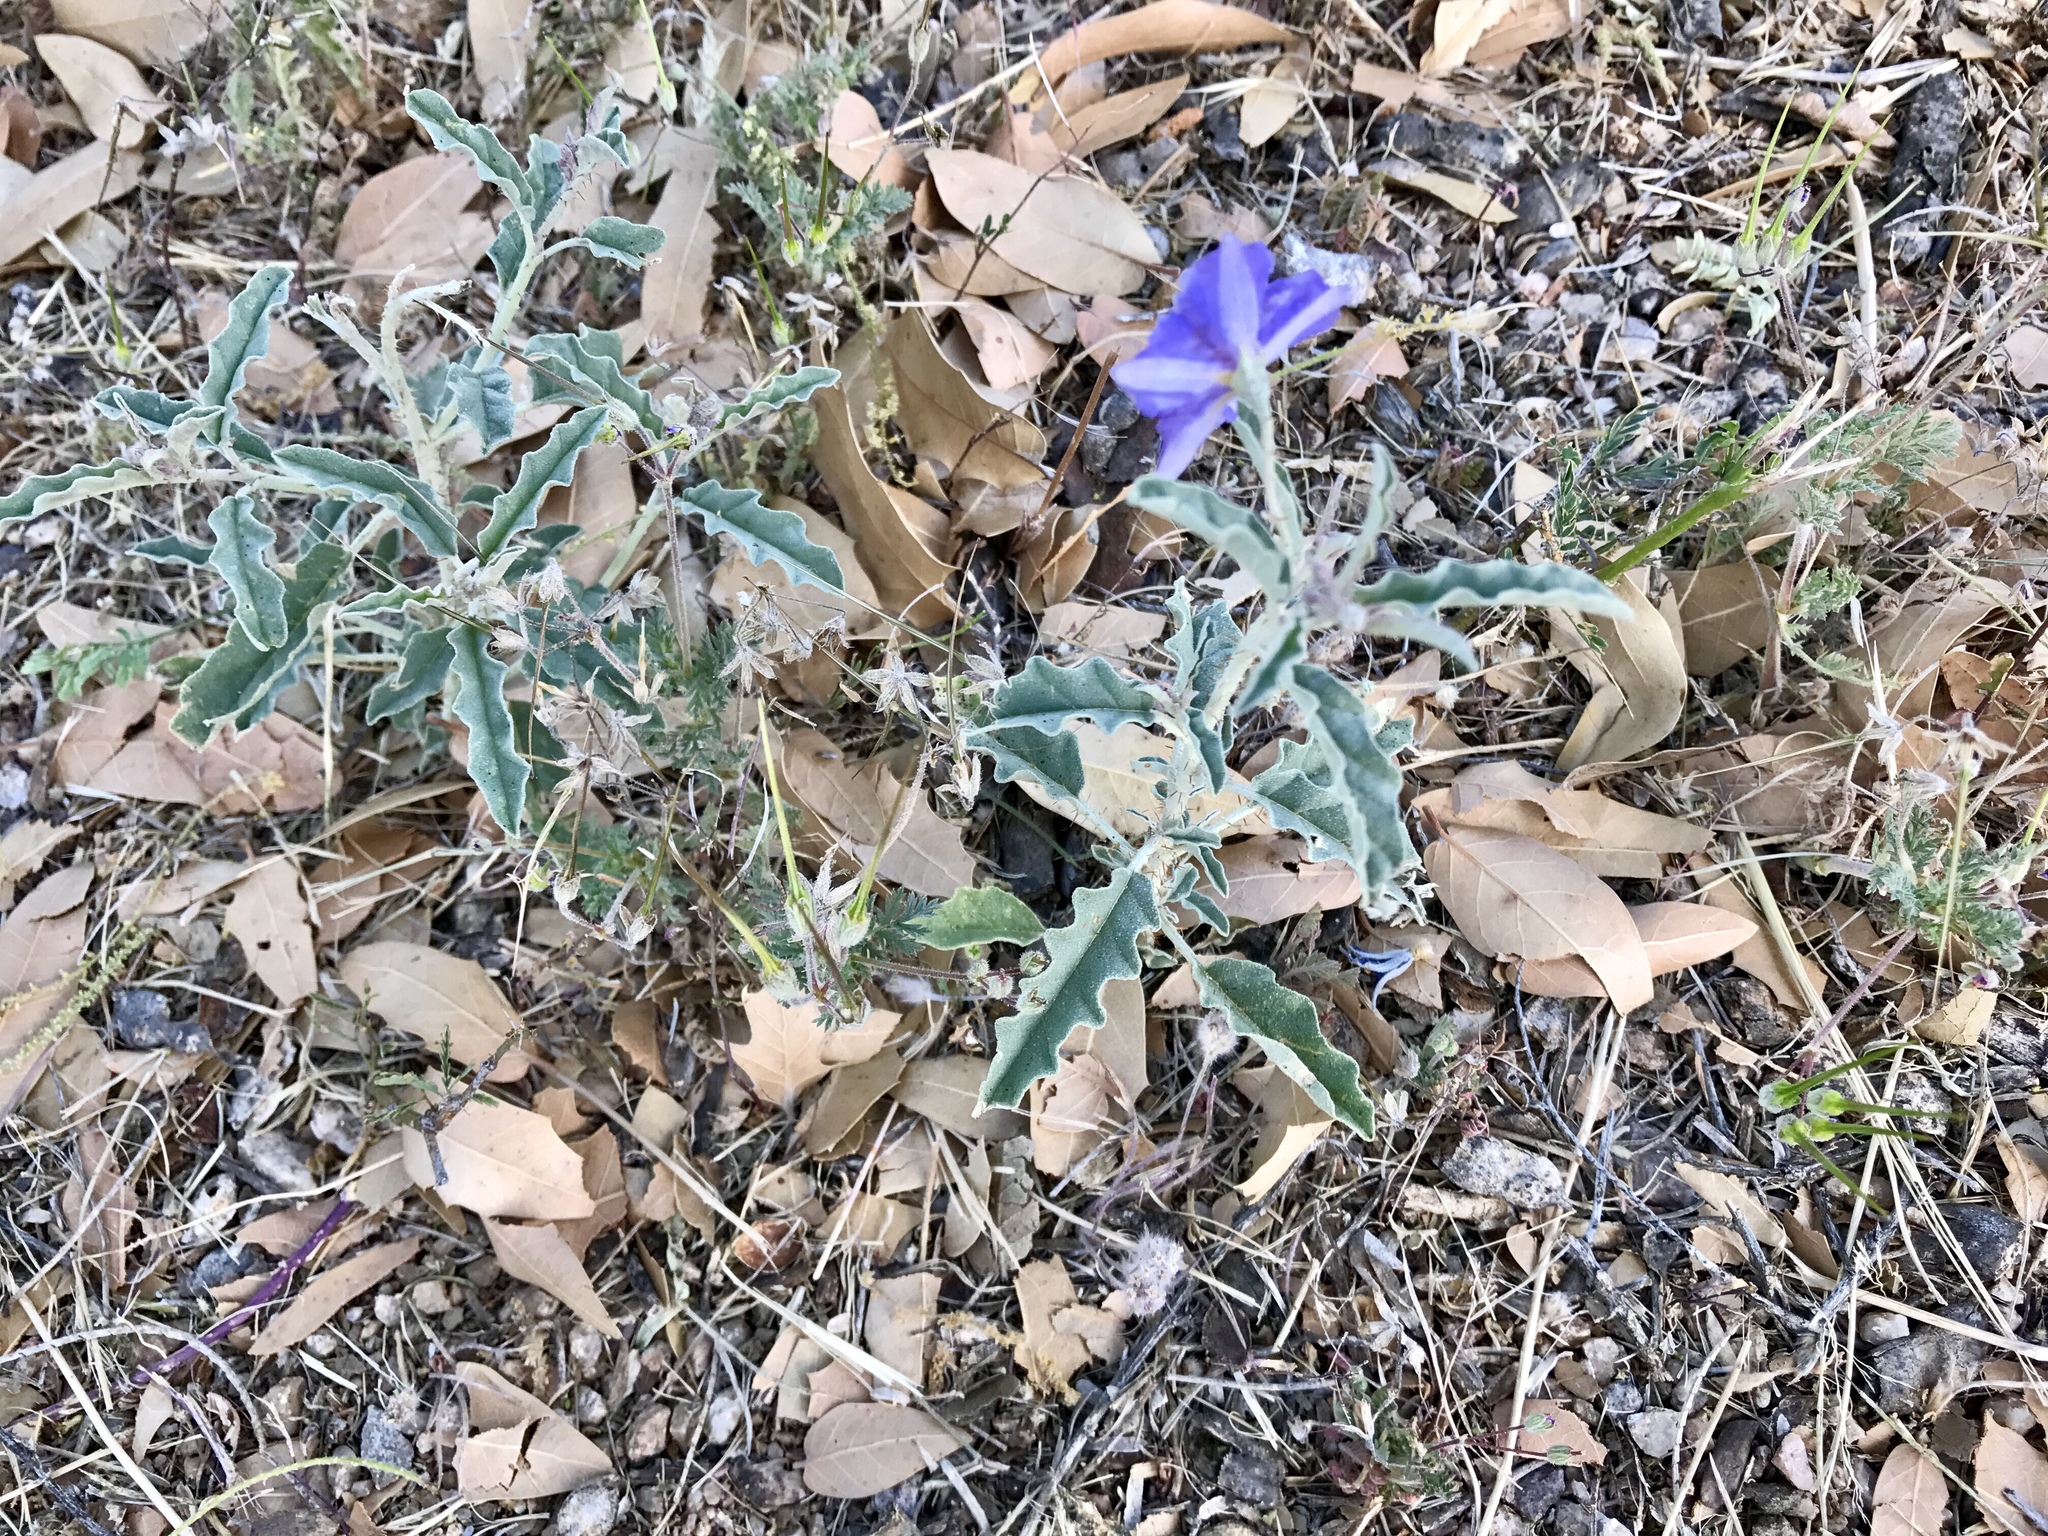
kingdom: Plantae
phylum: Tracheophyta
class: Magnoliopsida
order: Solanales
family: Solanaceae
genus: Solanum
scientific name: Solanum elaeagnifolium
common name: Silverleaf nightshade
